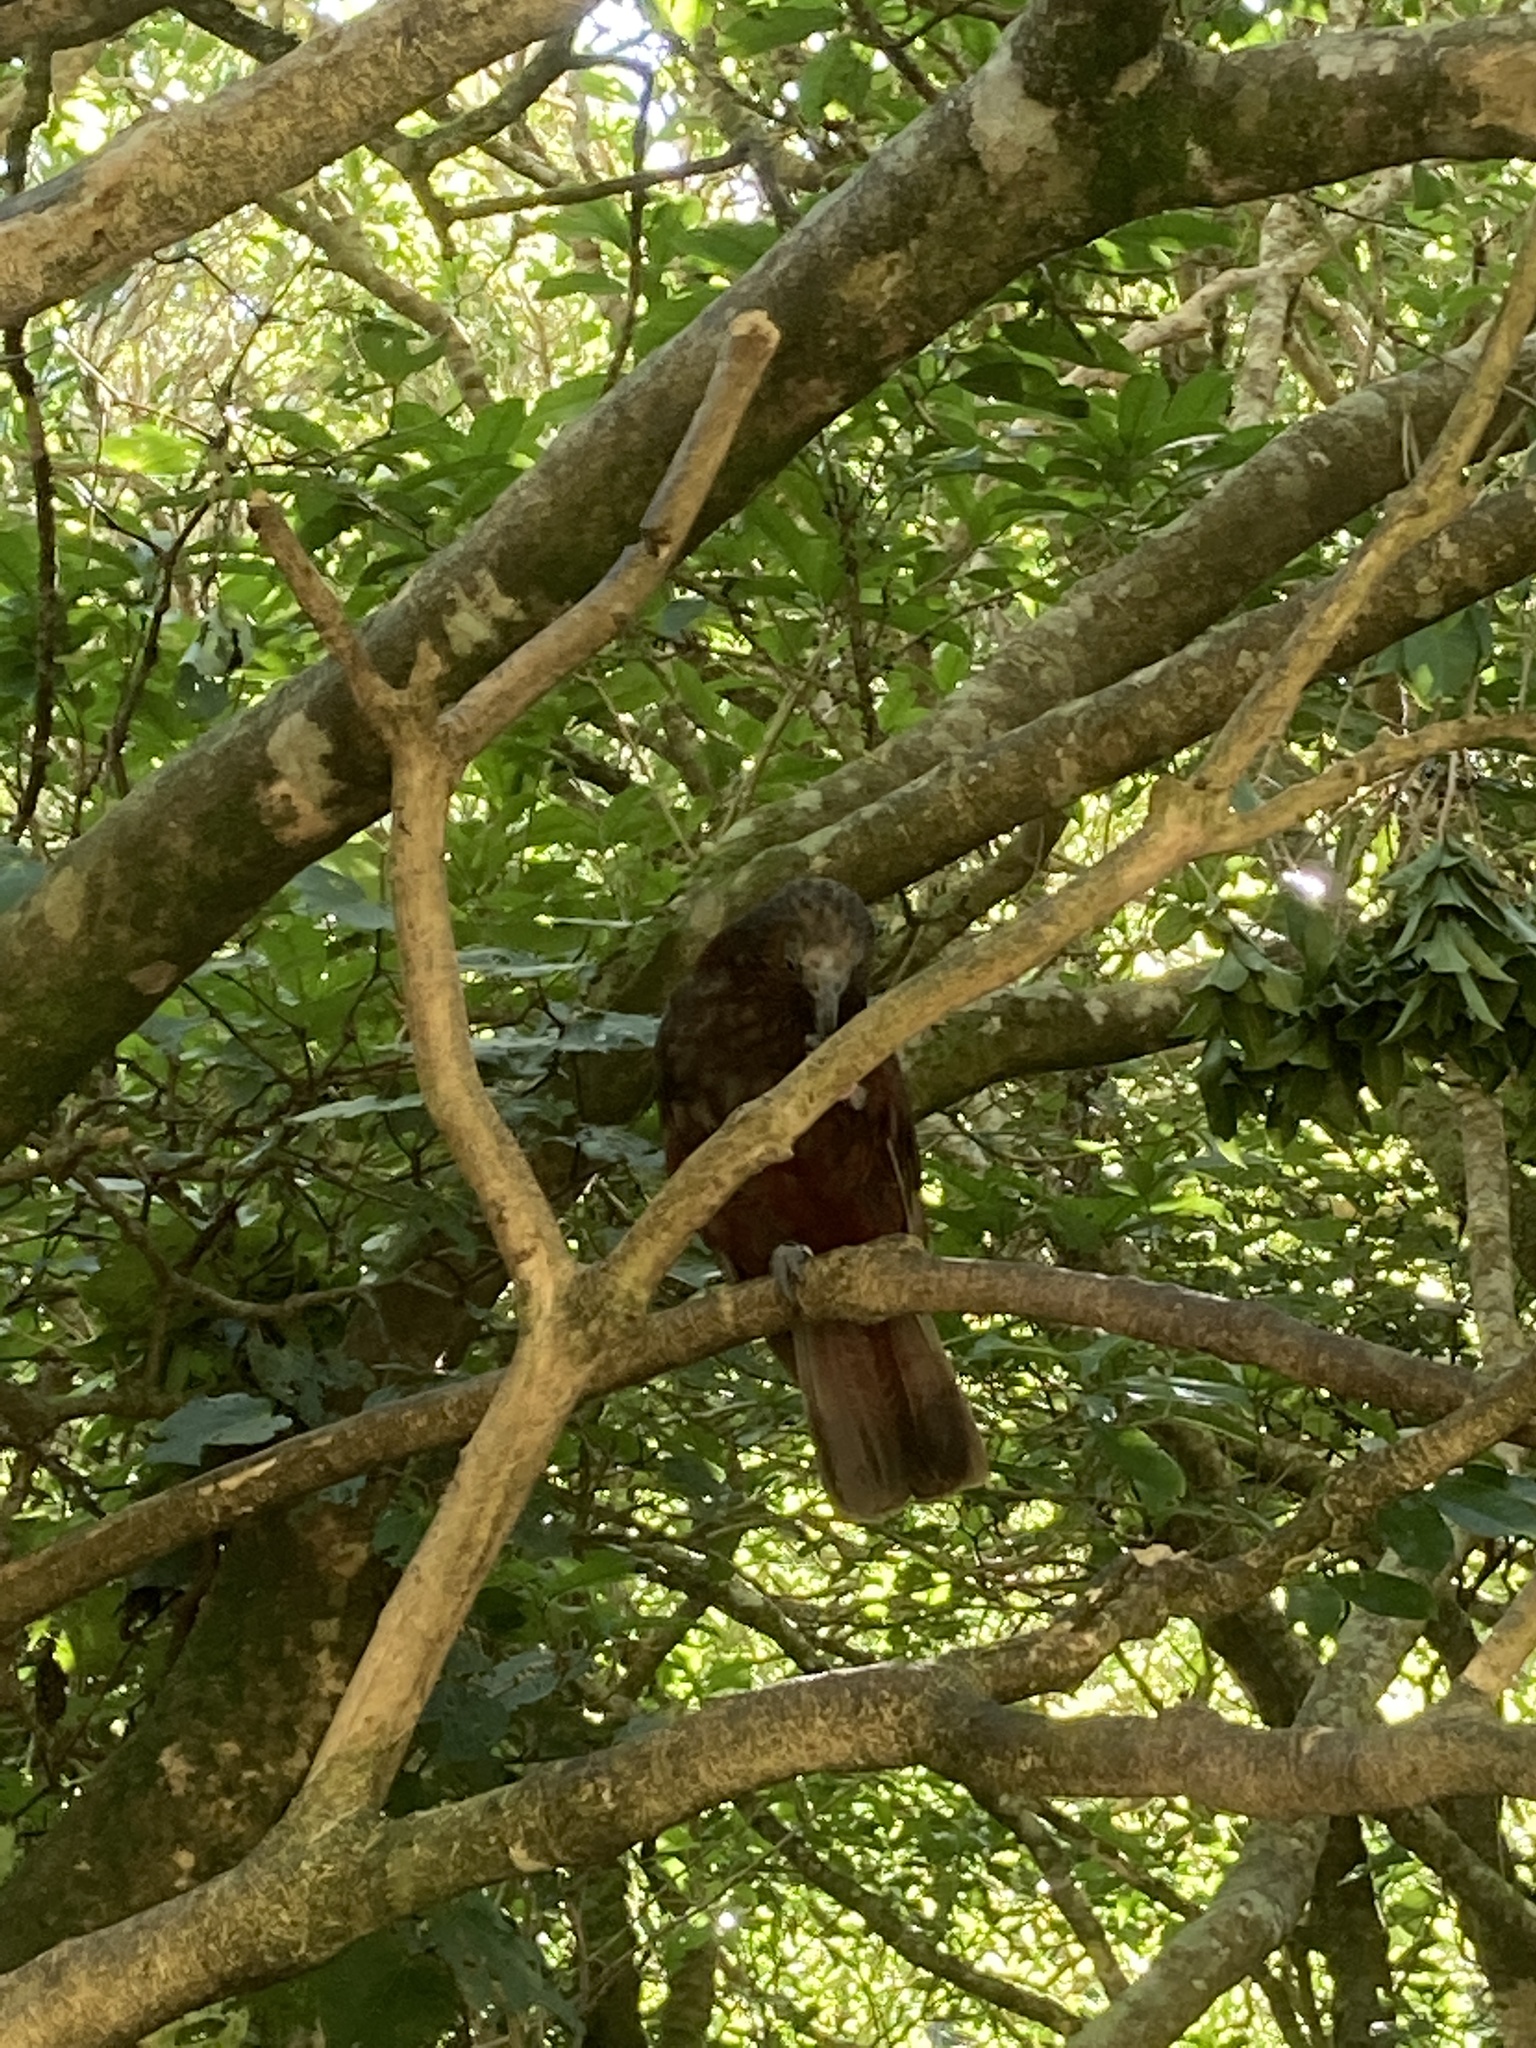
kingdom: Animalia
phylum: Chordata
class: Aves
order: Psittaciformes
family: Psittacidae
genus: Nestor
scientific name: Nestor meridionalis
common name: New zealand kaka
